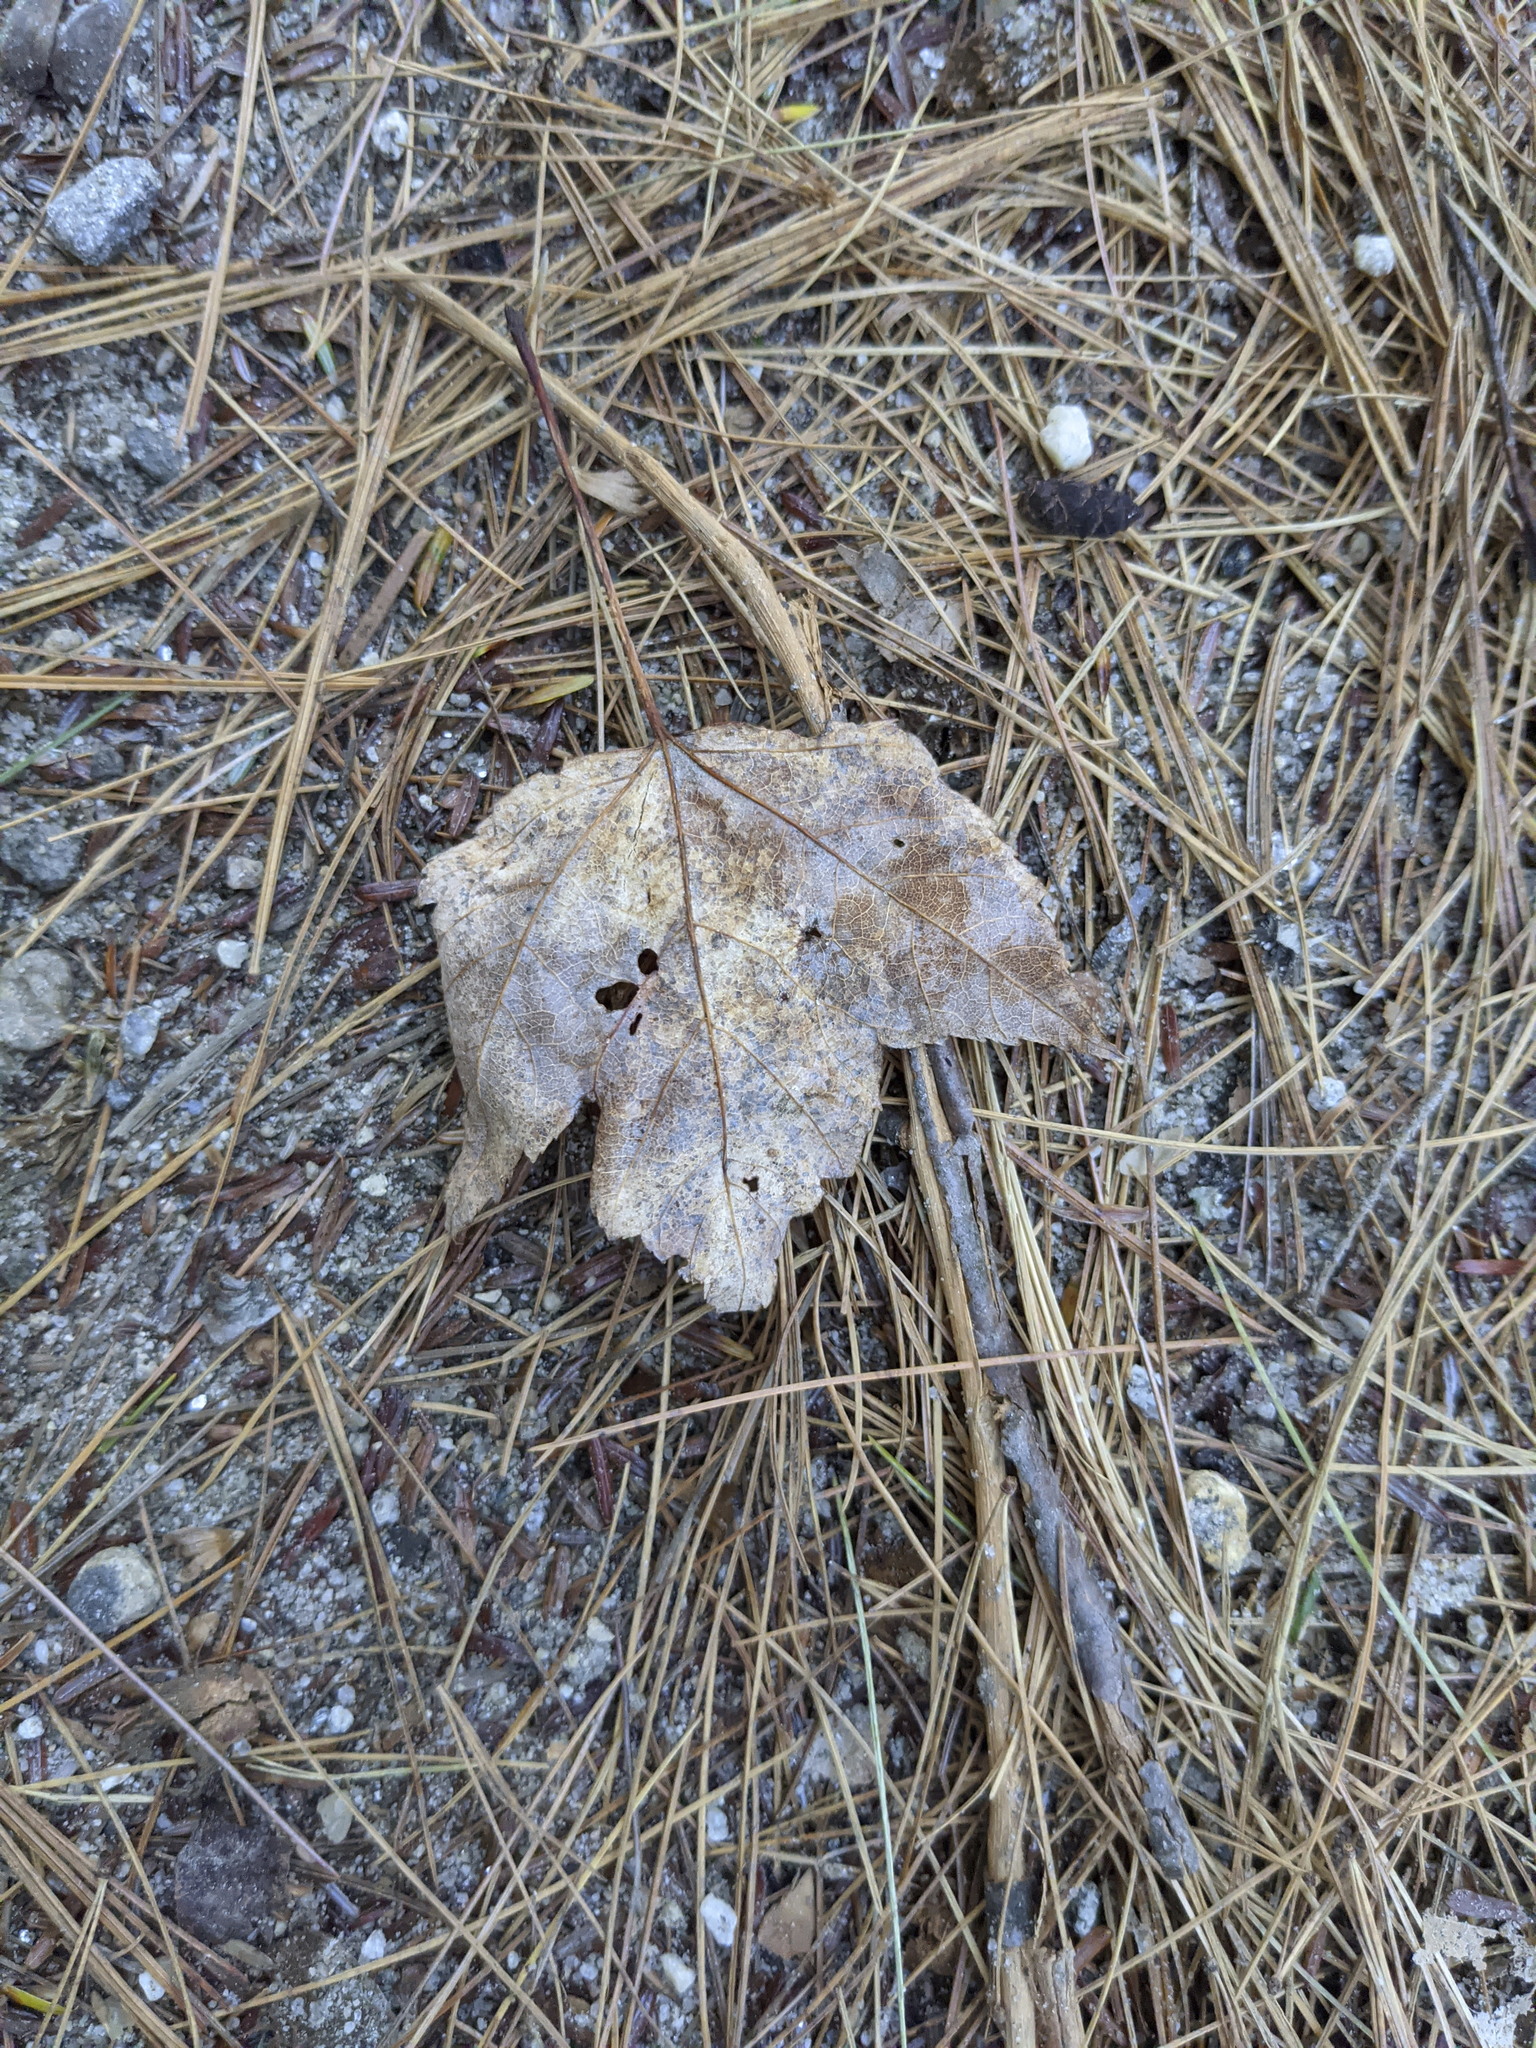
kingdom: Plantae
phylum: Tracheophyta
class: Magnoliopsida
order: Sapindales
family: Sapindaceae
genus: Acer
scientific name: Acer rubrum
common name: Red maple
